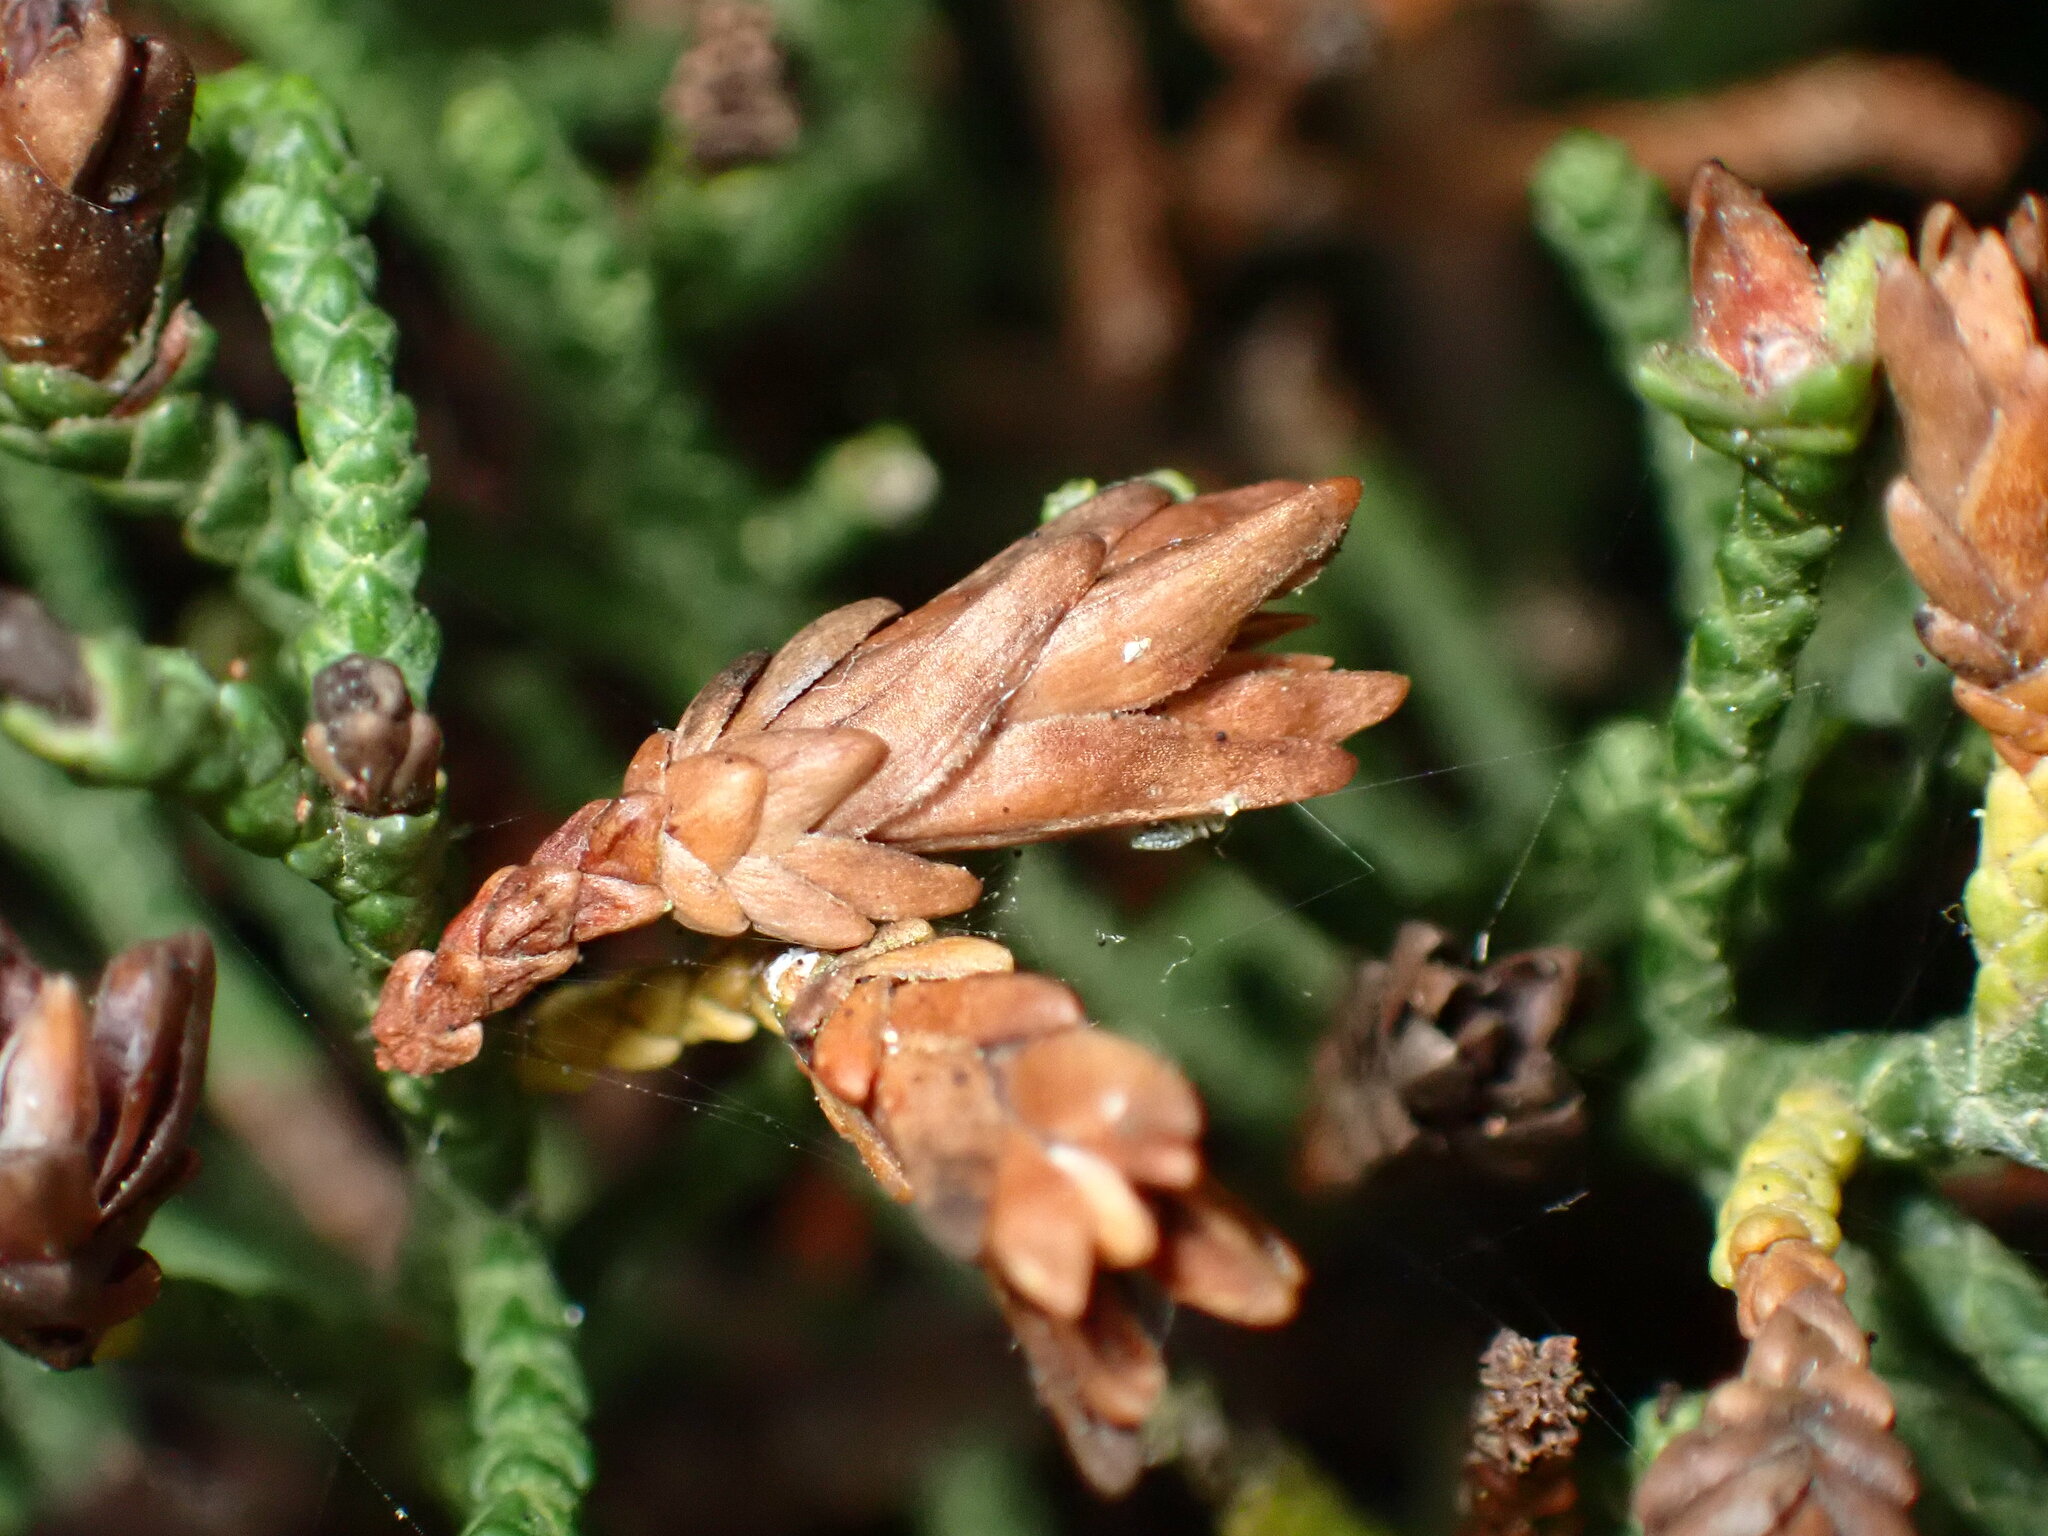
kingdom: Animalia
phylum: Arthropoda
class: Insecta
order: Diptera
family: Cecidomyiidae
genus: Oligotrophus
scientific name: Oligotrophus cupressi
